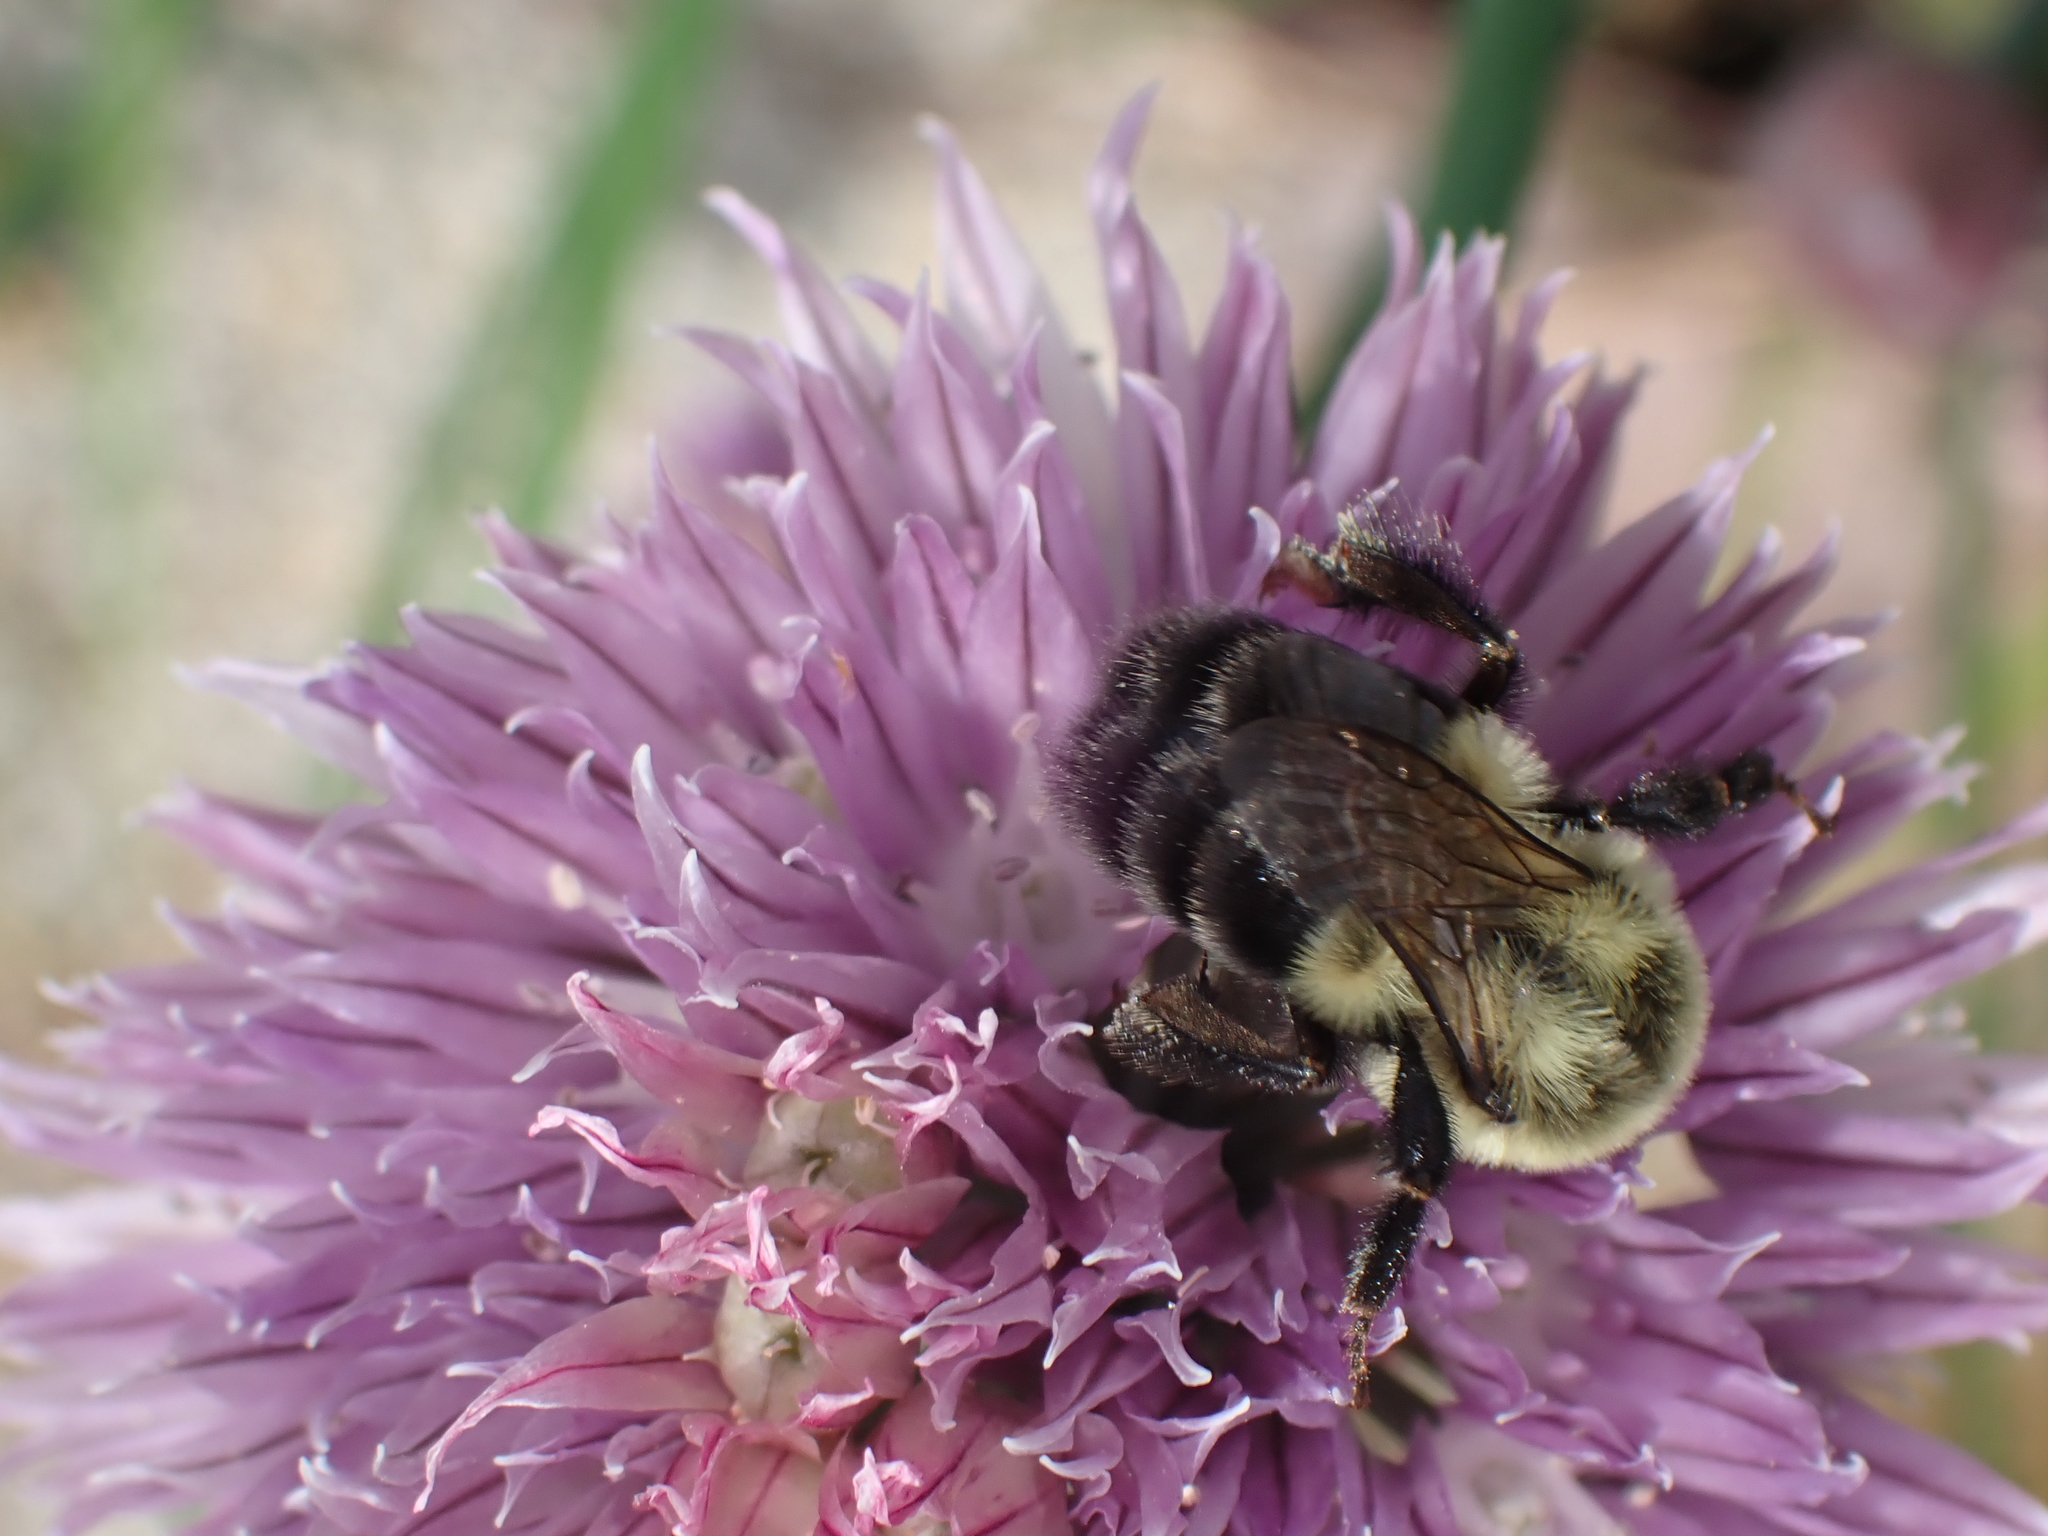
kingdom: Animalia
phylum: Arthropoda
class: Insecta
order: Hymenoptera
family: Apidae
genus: Bombus
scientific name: Bombus impatiens
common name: Common eastern bumble bee
